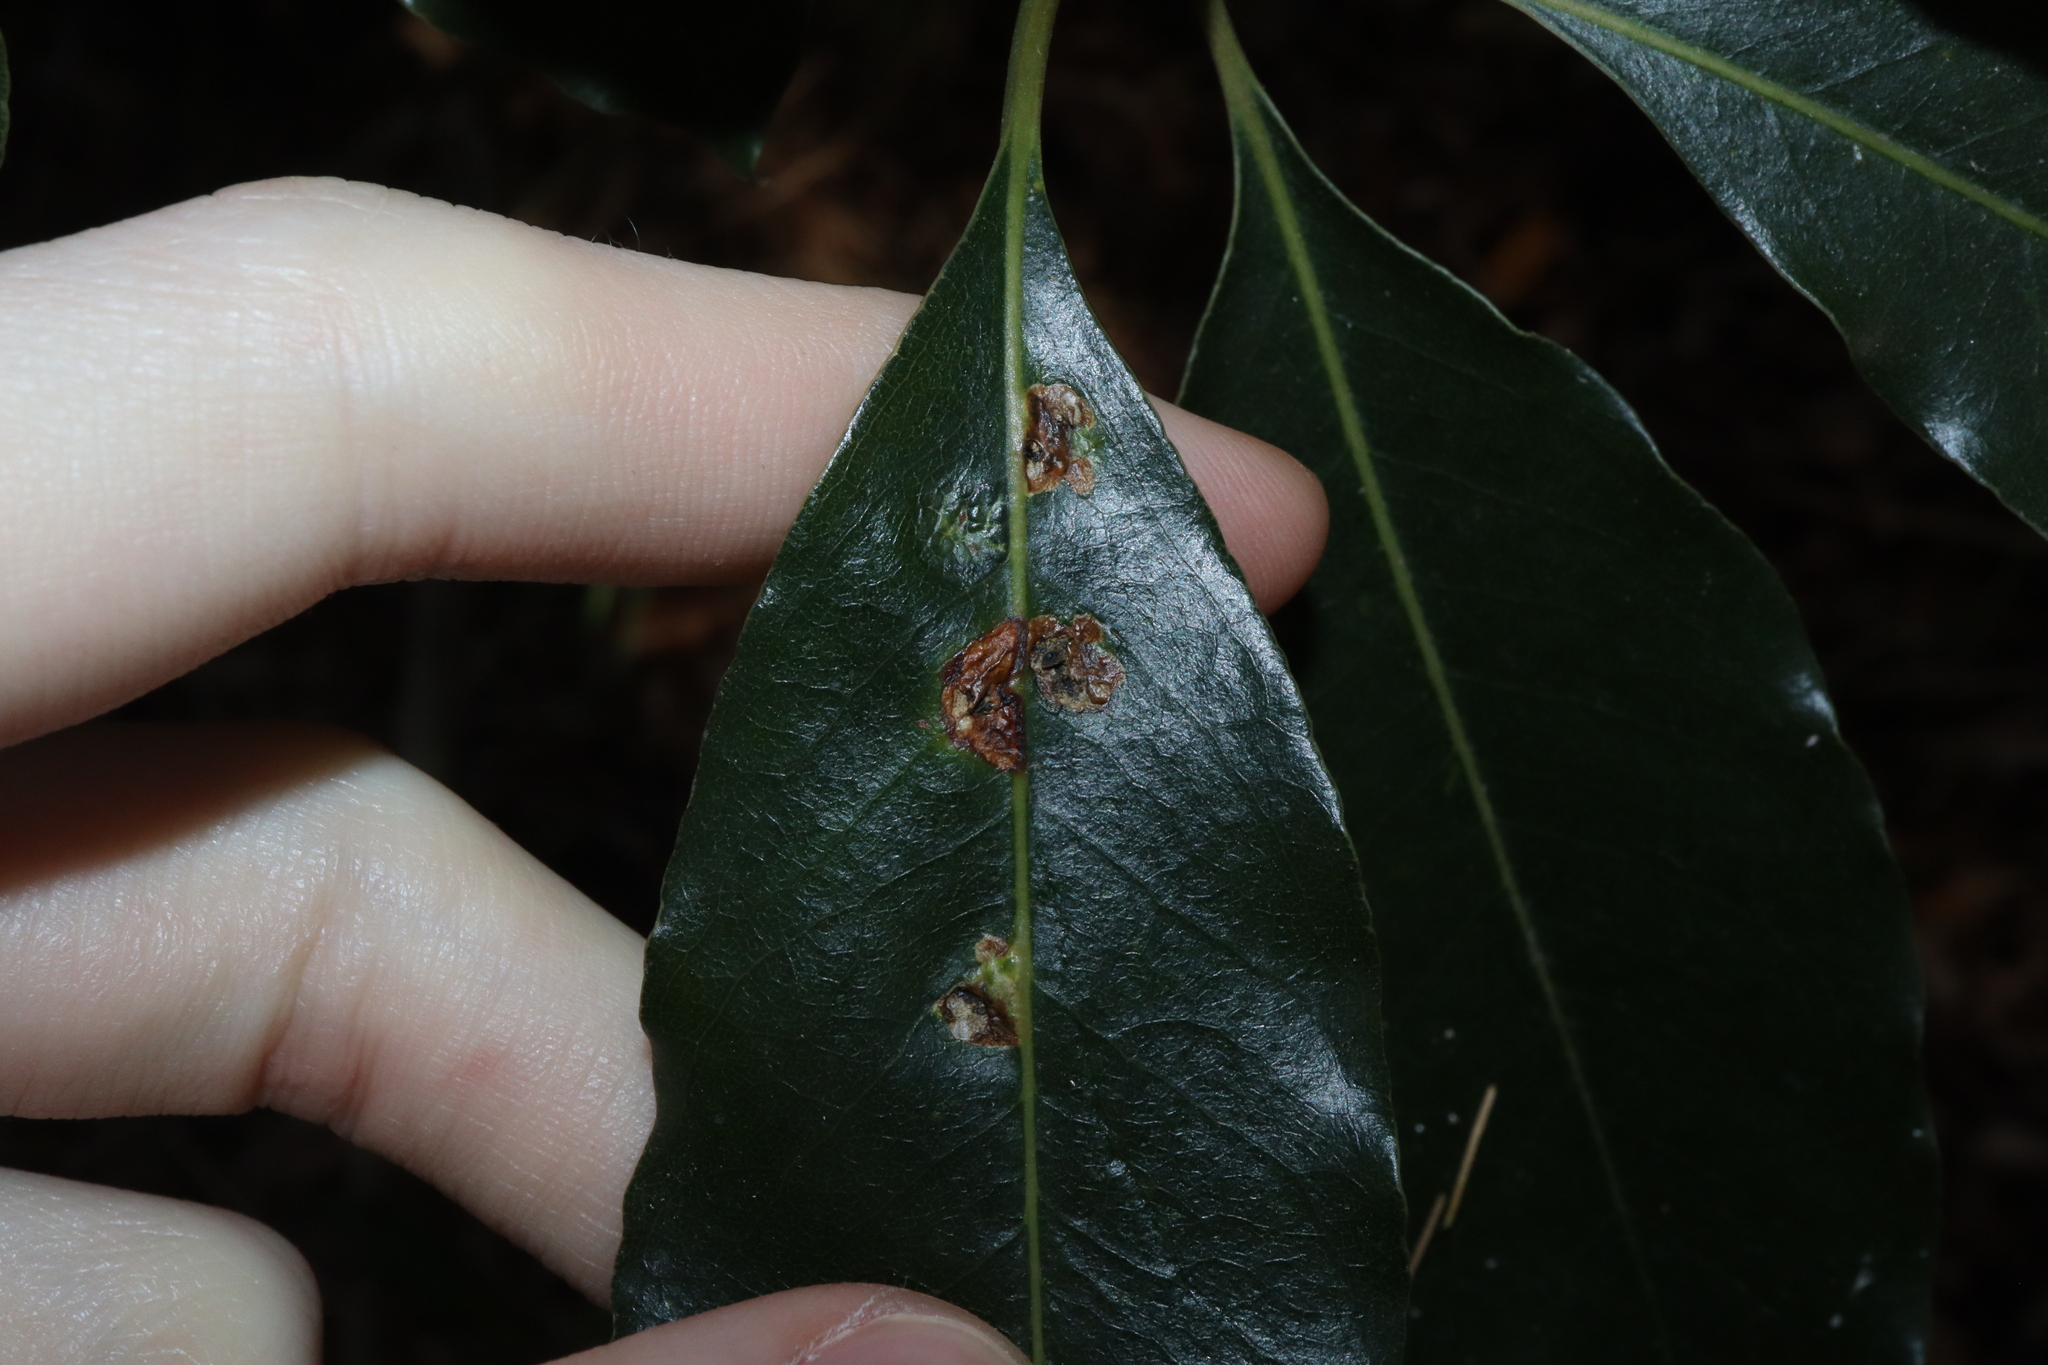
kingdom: Animalia
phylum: Arthropoda
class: Insecta
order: Diptera
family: Agromyzidae
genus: Phytoliriomyza
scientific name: Phytoliriomyza pittosporophylli
